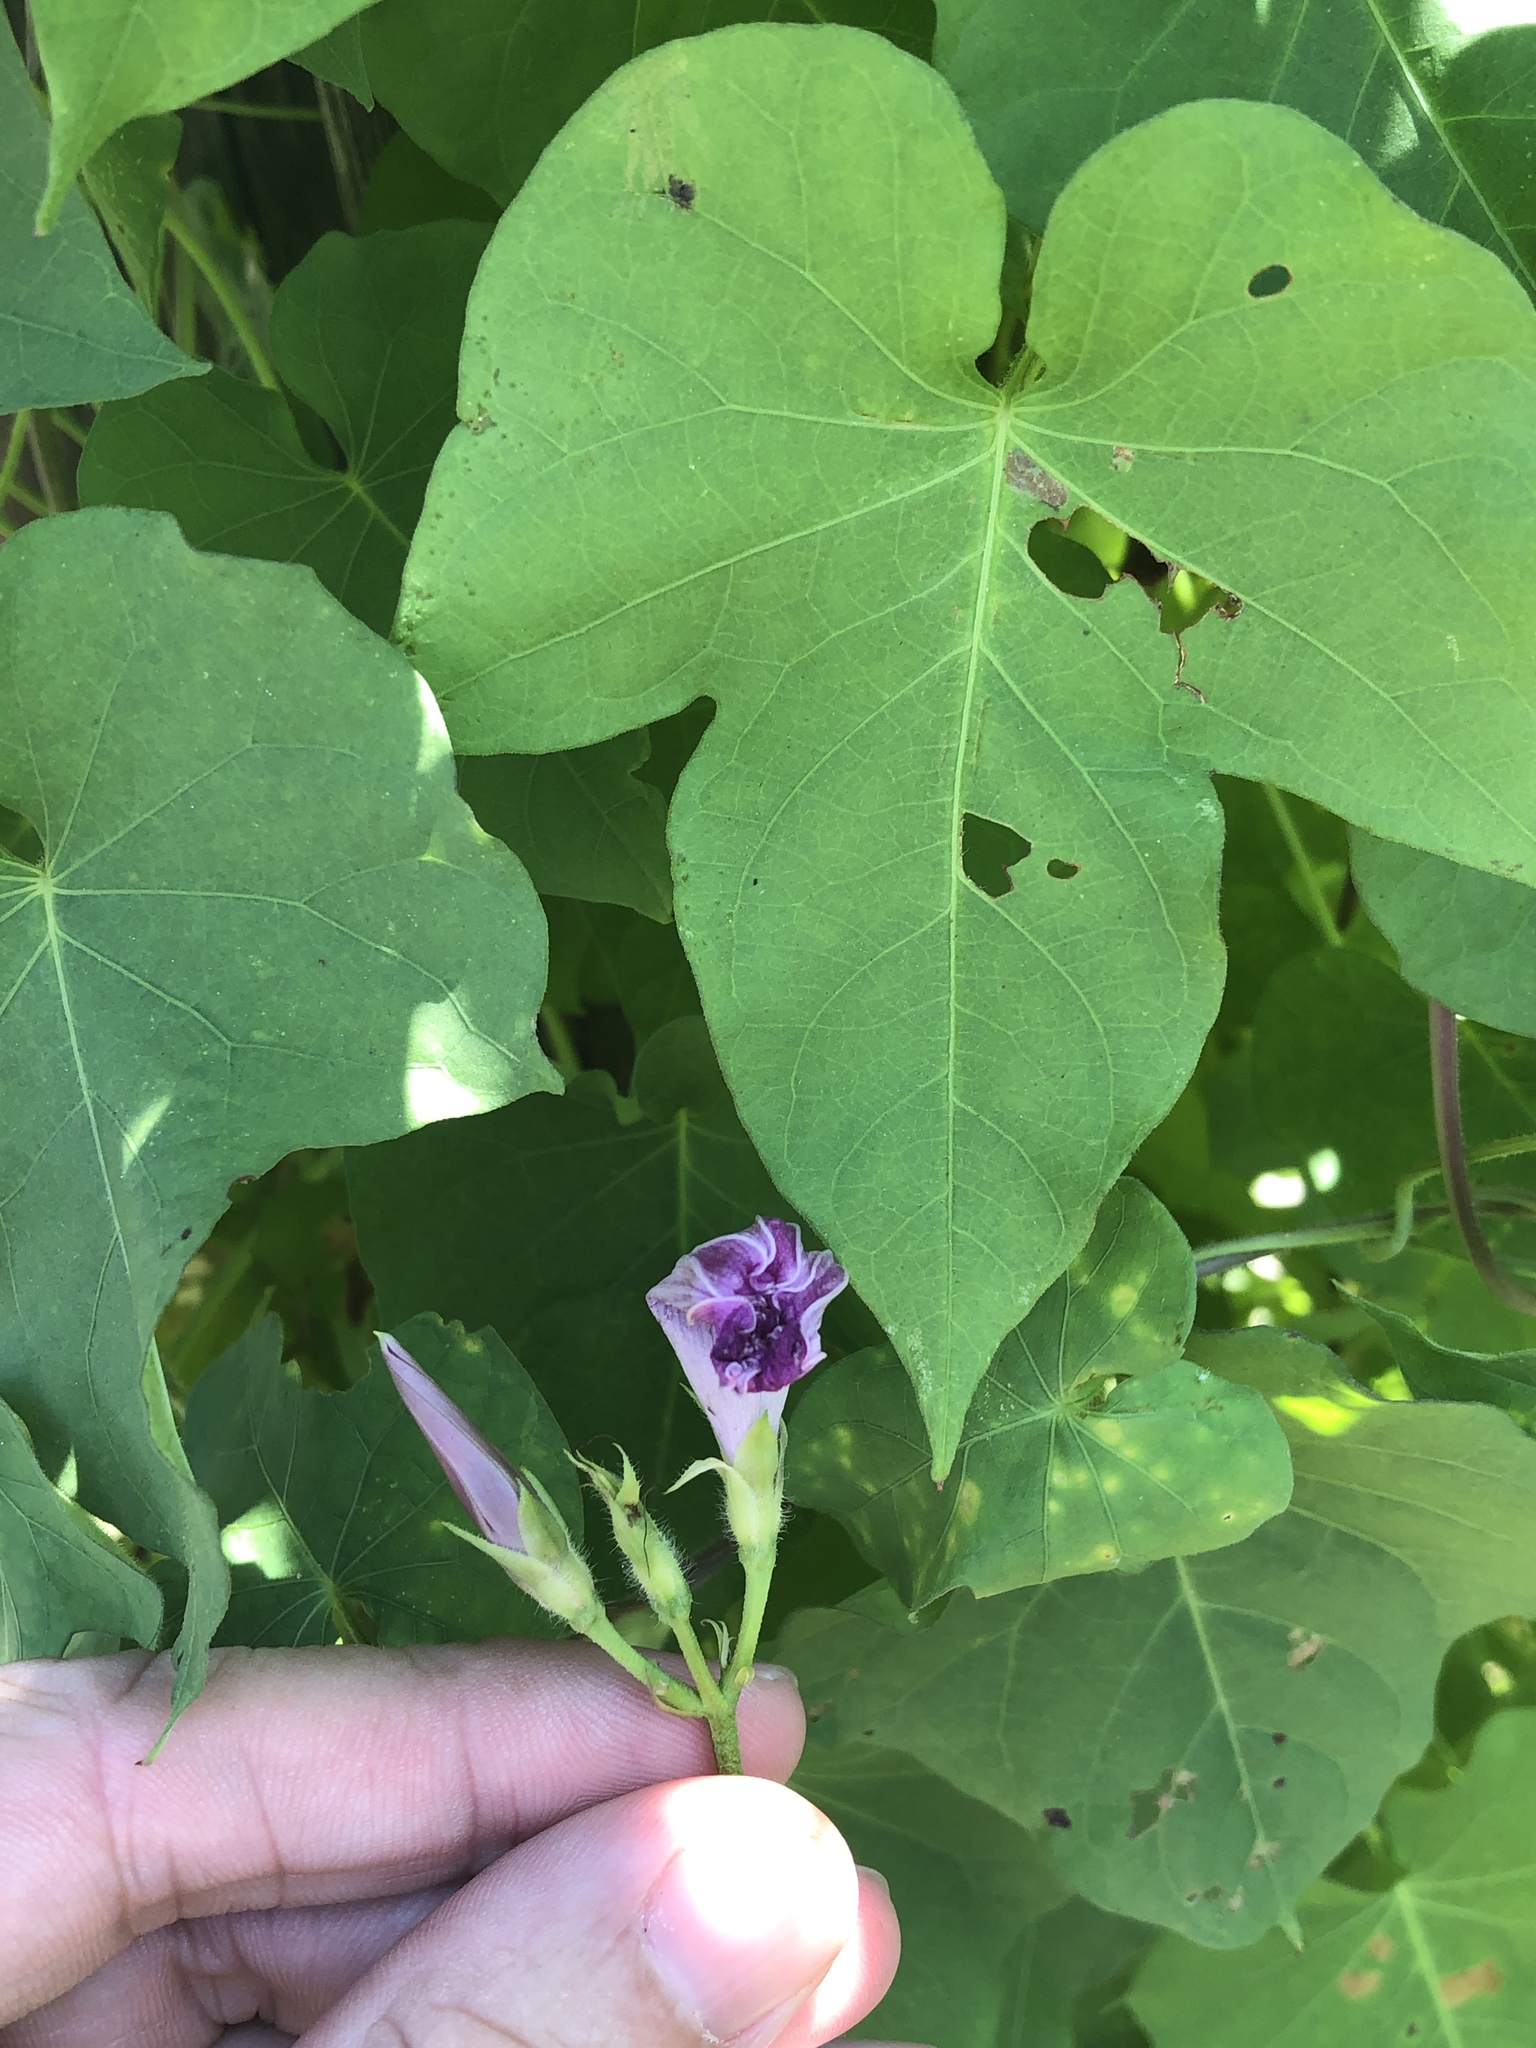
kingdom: Plantae
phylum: Tracheophyta
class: Magnoliopsida
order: Solanales
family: Convolvulaceae
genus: Ipomoea
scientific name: Ipomoea cordatotriloba
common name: Cotton morning glory
